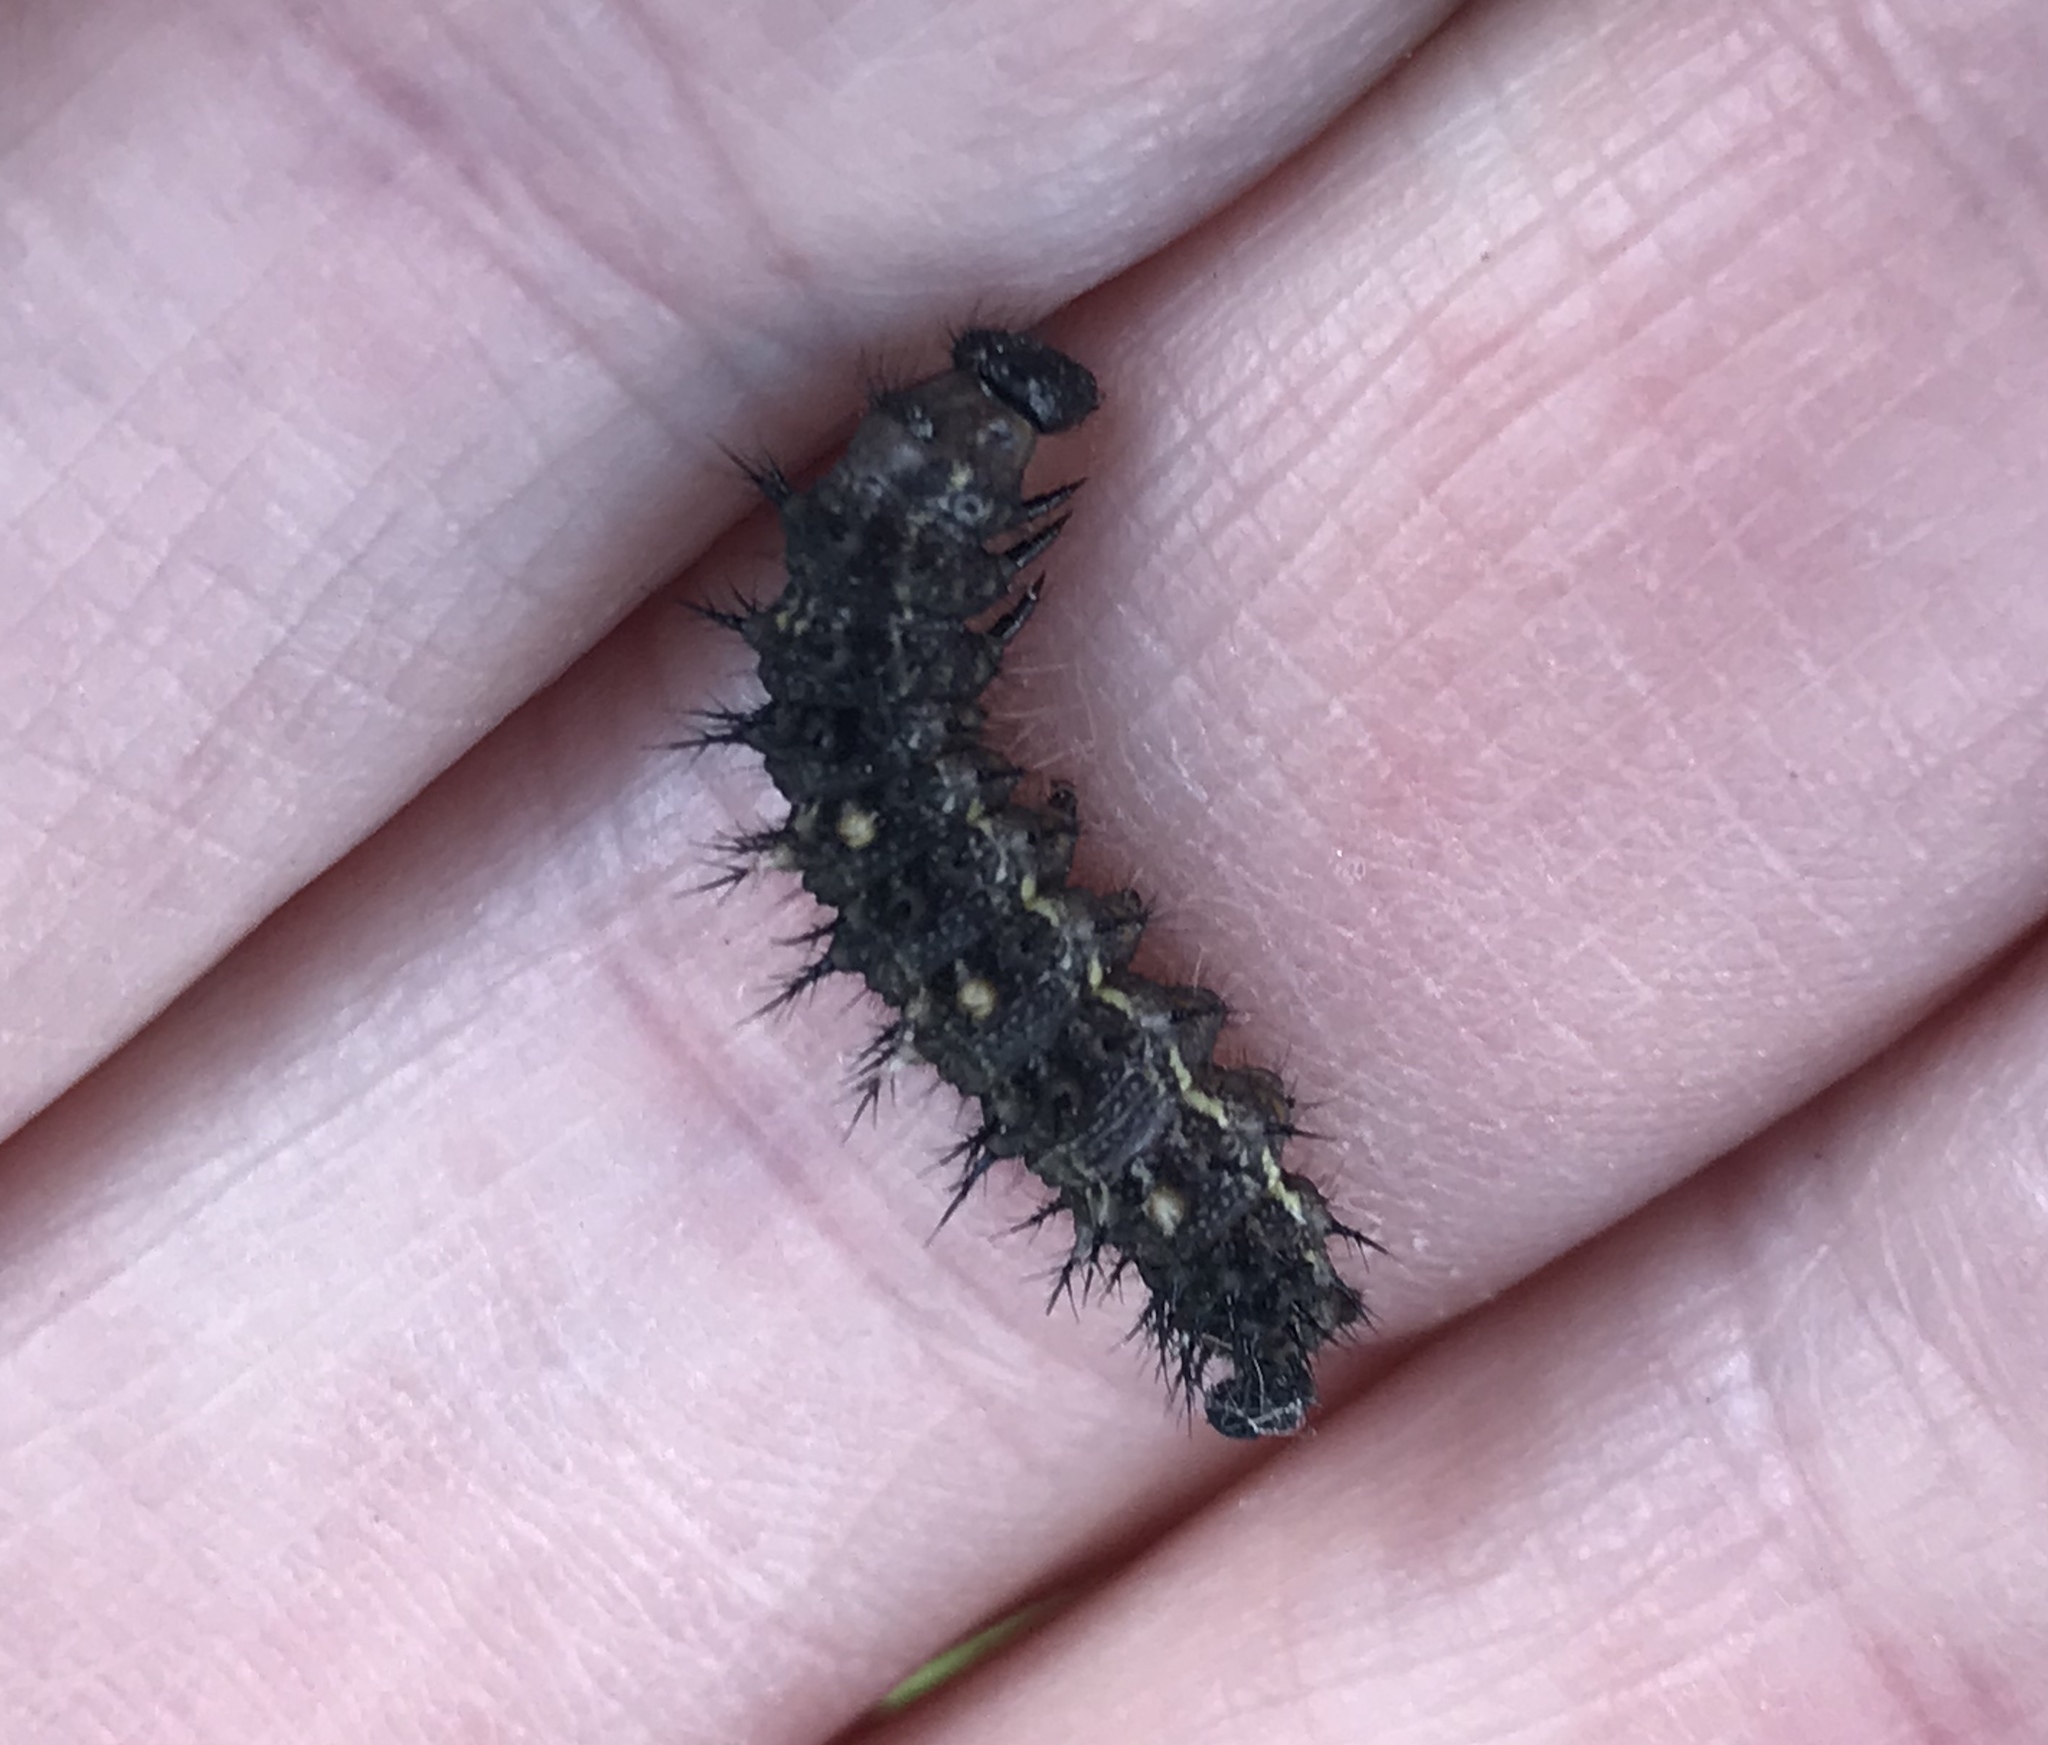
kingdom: Animalia
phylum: Arthropoda
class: Insecta
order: Lepidoptera
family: Nymphalidae
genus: Vanessa
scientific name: Vanessa cardui
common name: Painted lady
